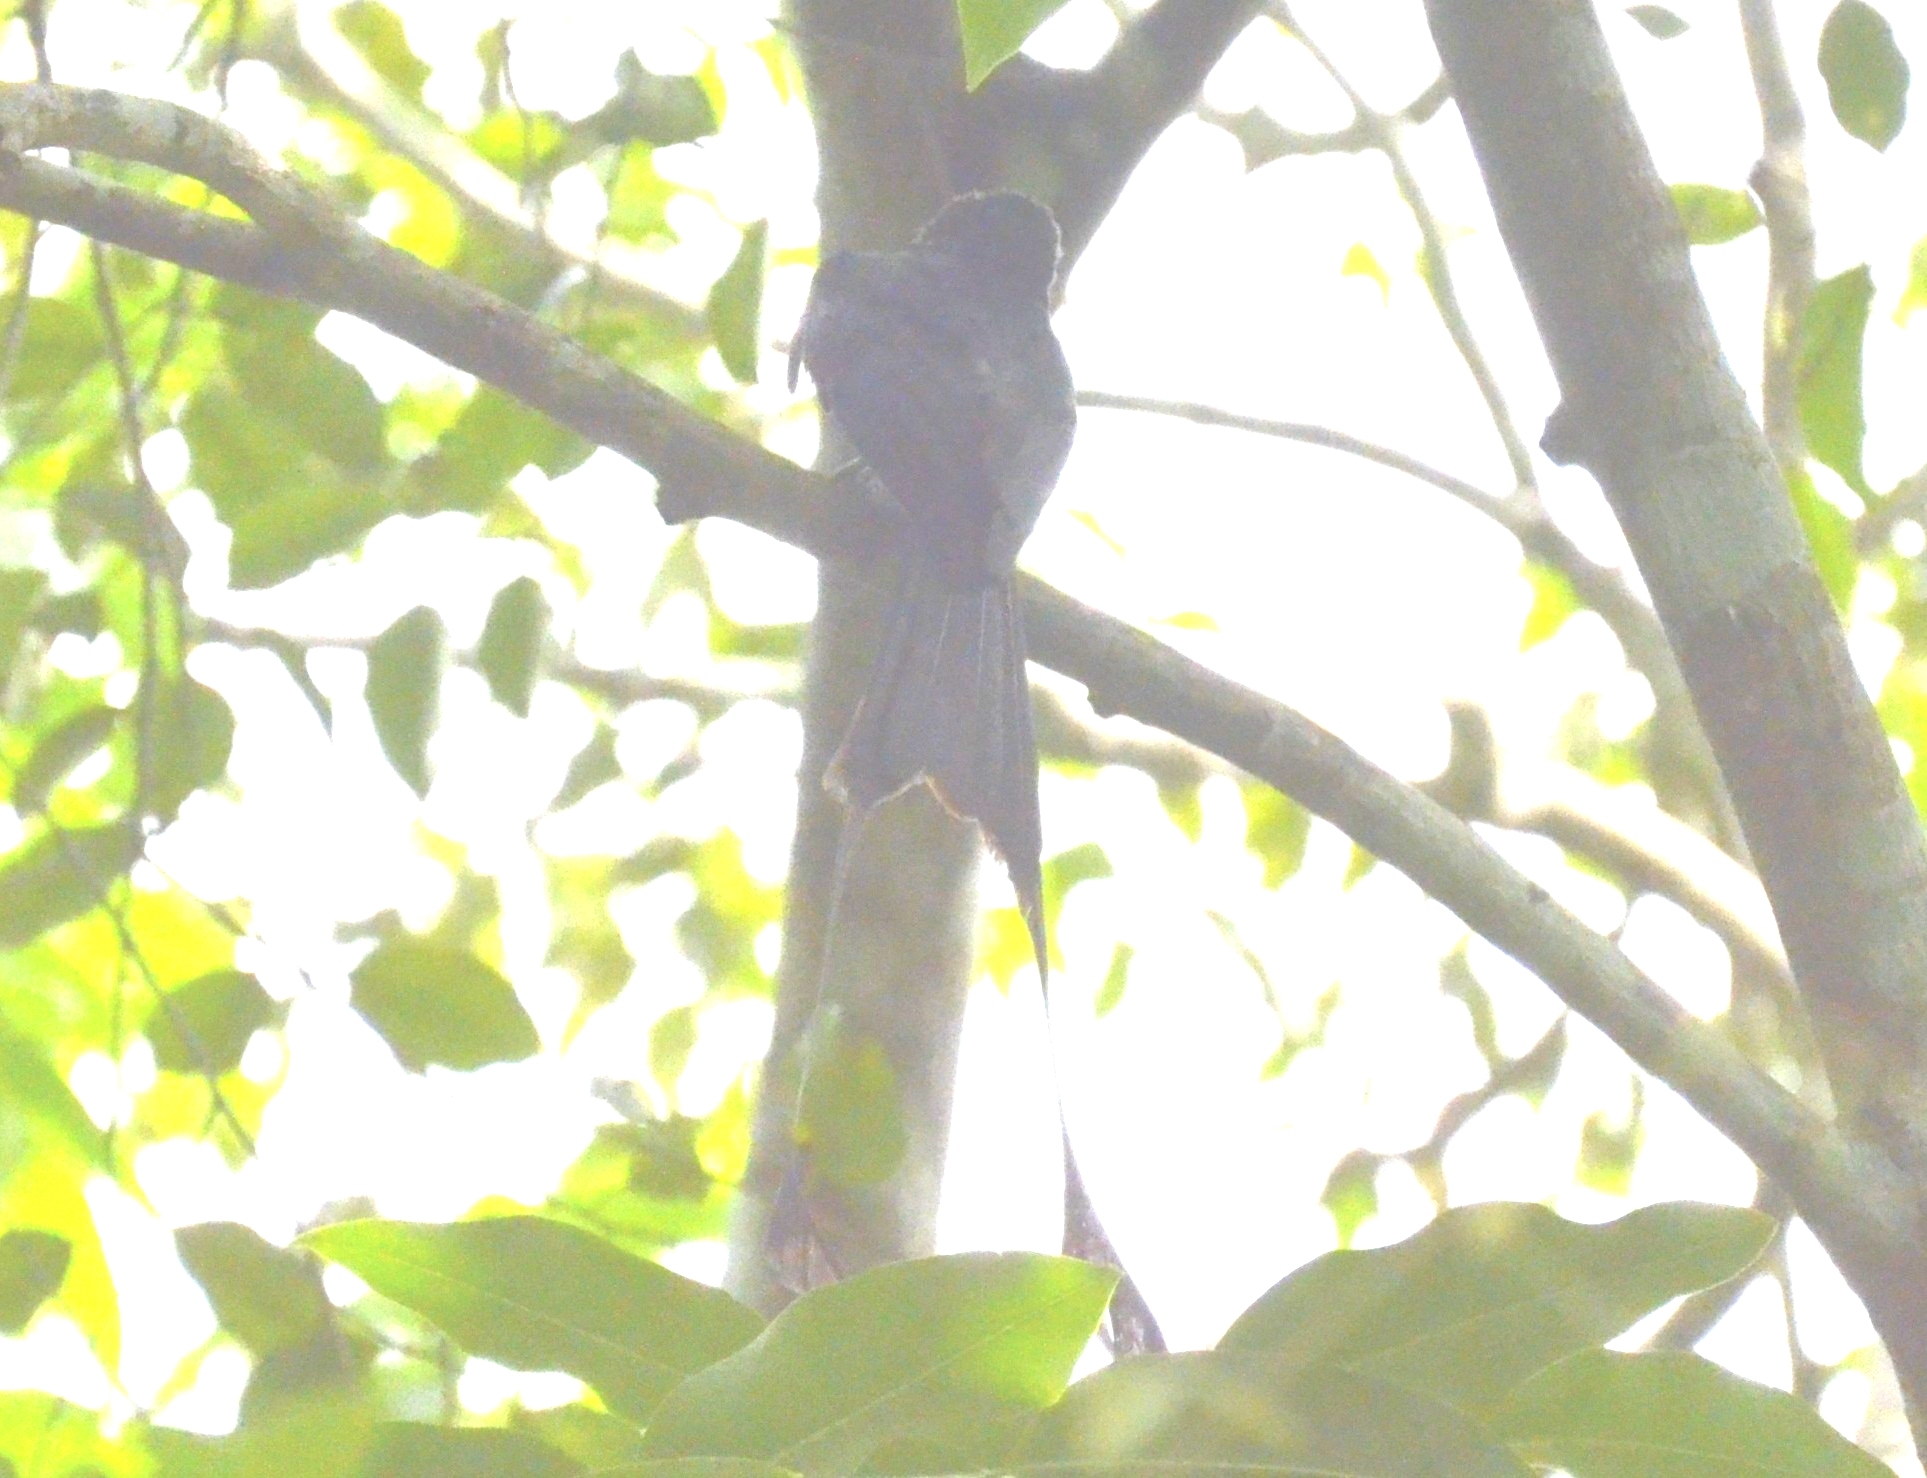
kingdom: Animalia
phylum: Chordata
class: Aves
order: Passeriformes
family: Dicruridae
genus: Dicrurus
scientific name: Dicrurus paradiseus
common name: Greater racket-tailed drongo
